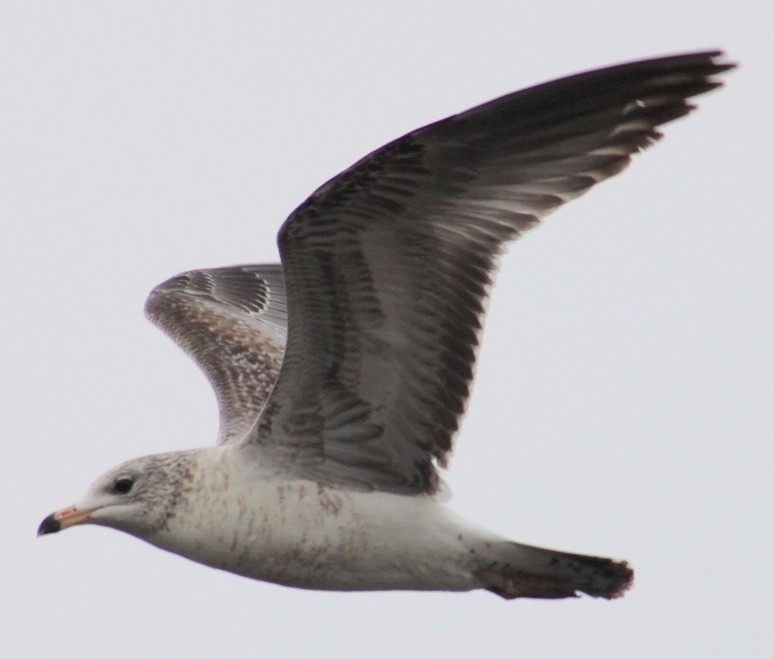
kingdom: Animalia
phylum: Chordata
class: Aves
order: Charadriiformes
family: Laridae
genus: Larus
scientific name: Larus delawarensis
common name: Ring-billed gull
